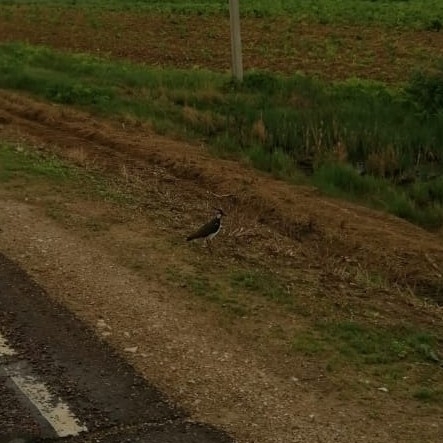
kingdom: Animalia
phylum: Chordata
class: Aves
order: Charadriiformes
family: Charadriidae
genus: Vanellus
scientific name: Vanellus vanellus
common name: Northern lapwing
